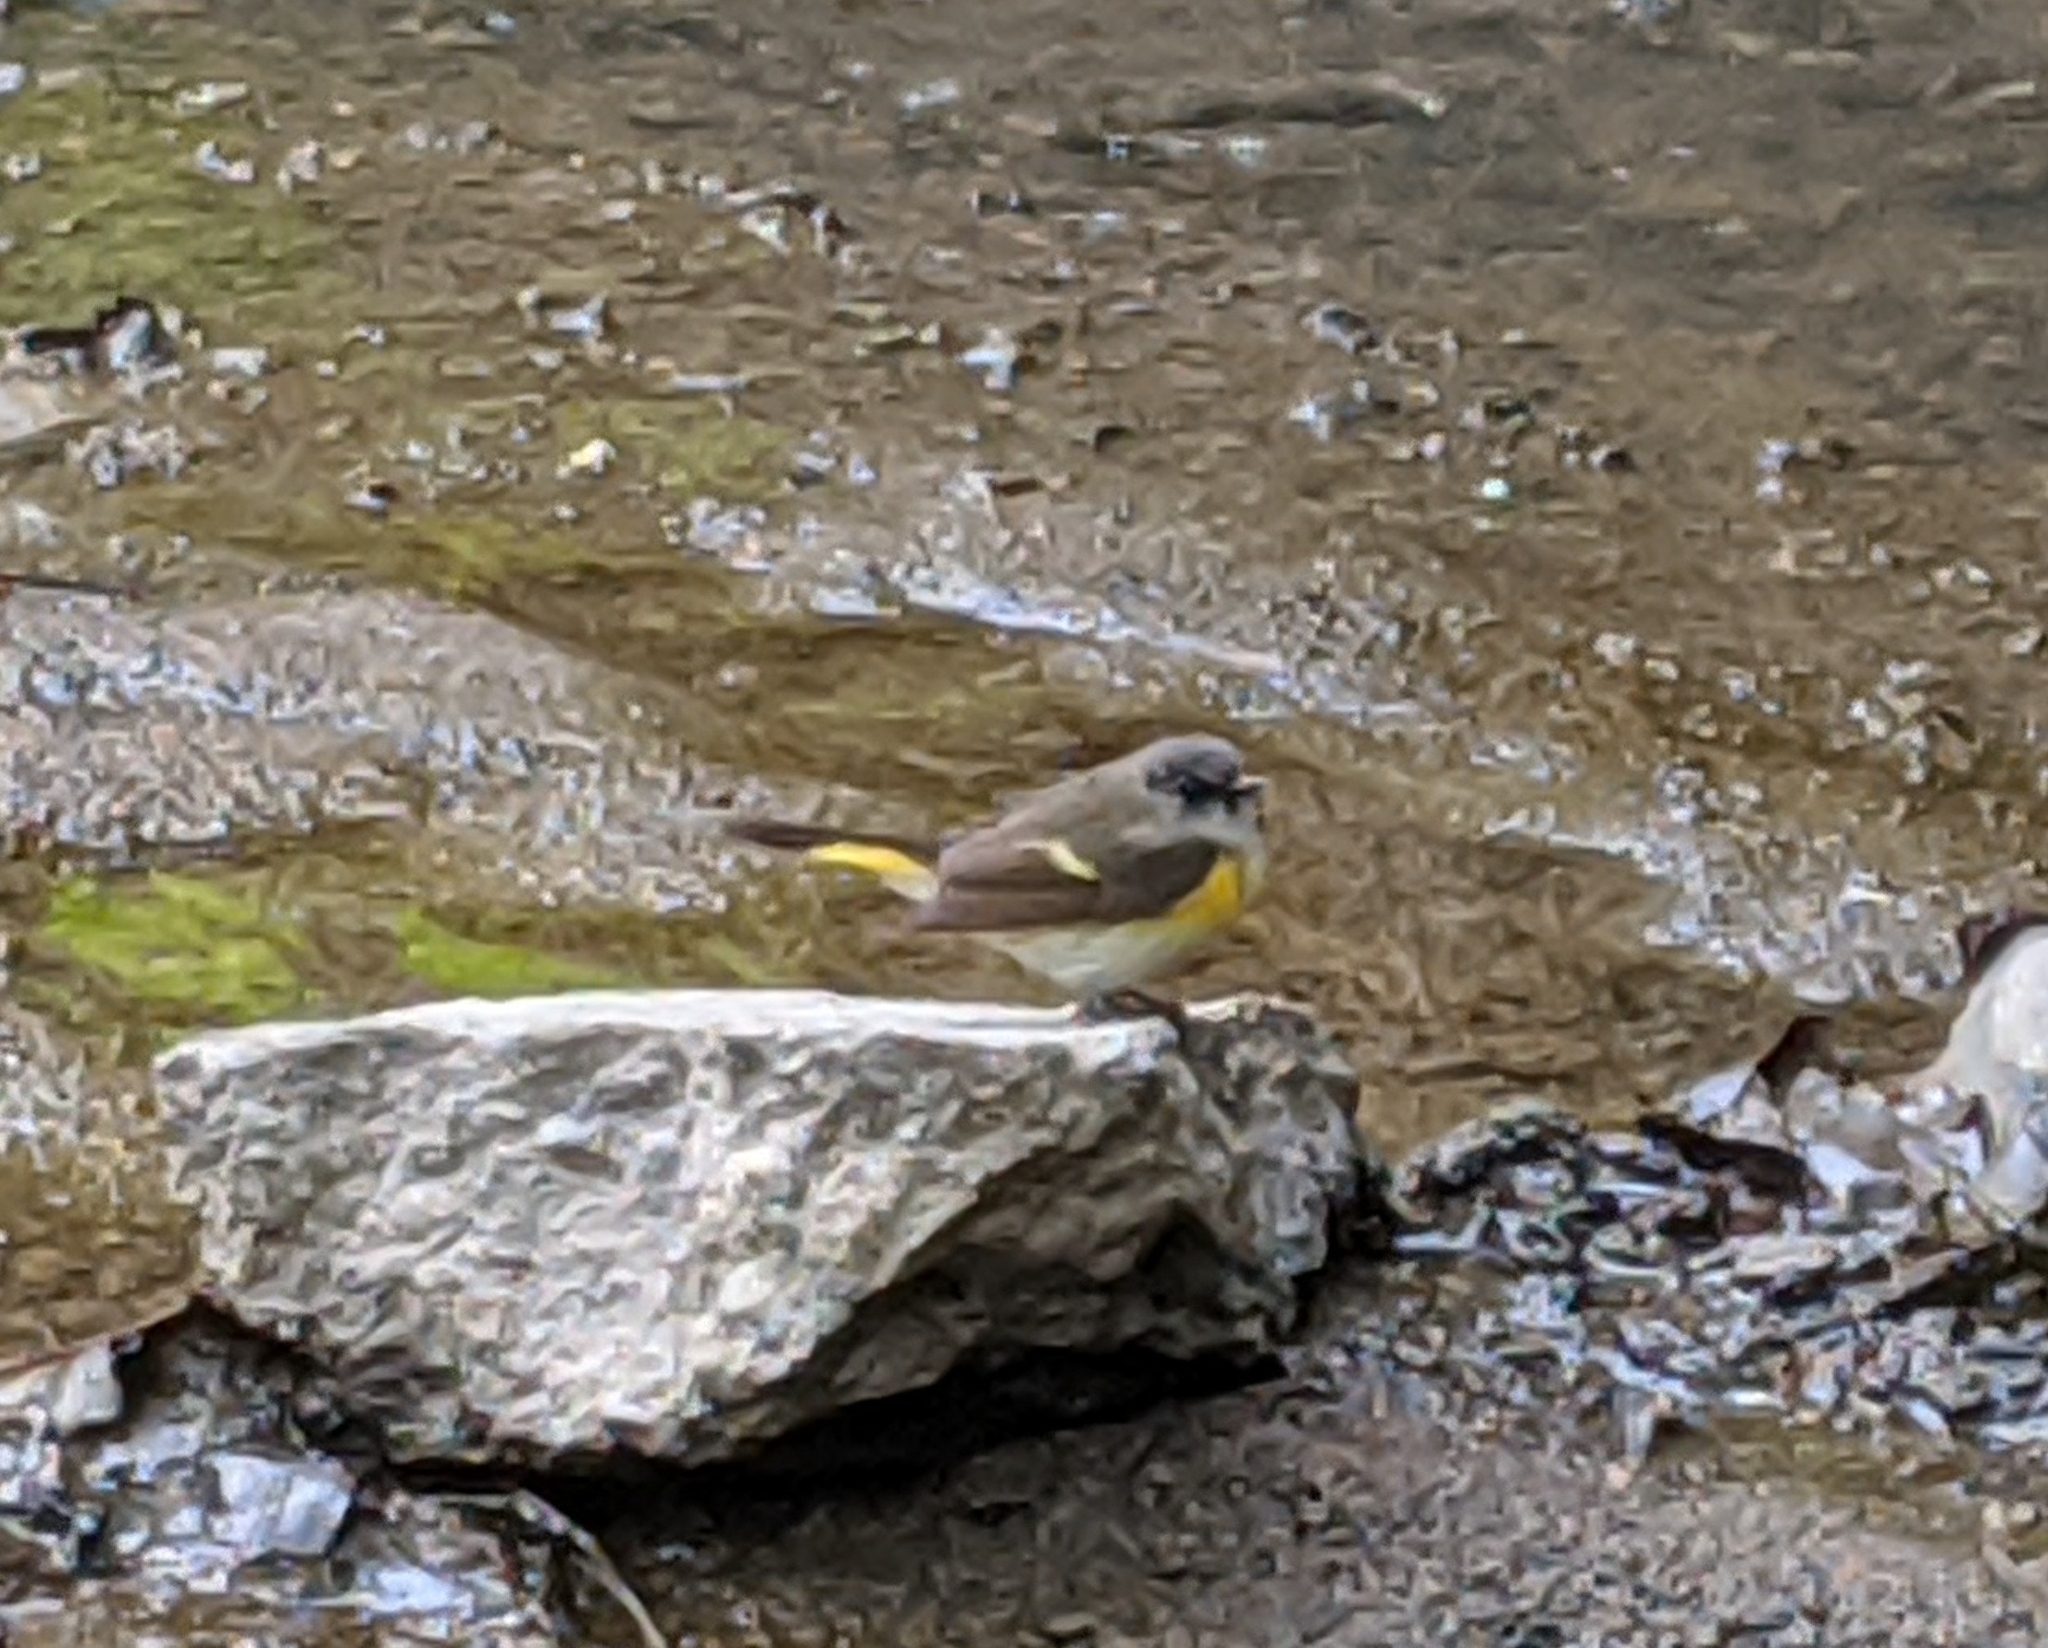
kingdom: Animalia
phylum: Chordata
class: Aves
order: Passeriformes
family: Parulidae
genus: Setophaga
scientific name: Setophaga ruticilla
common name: American redstart
